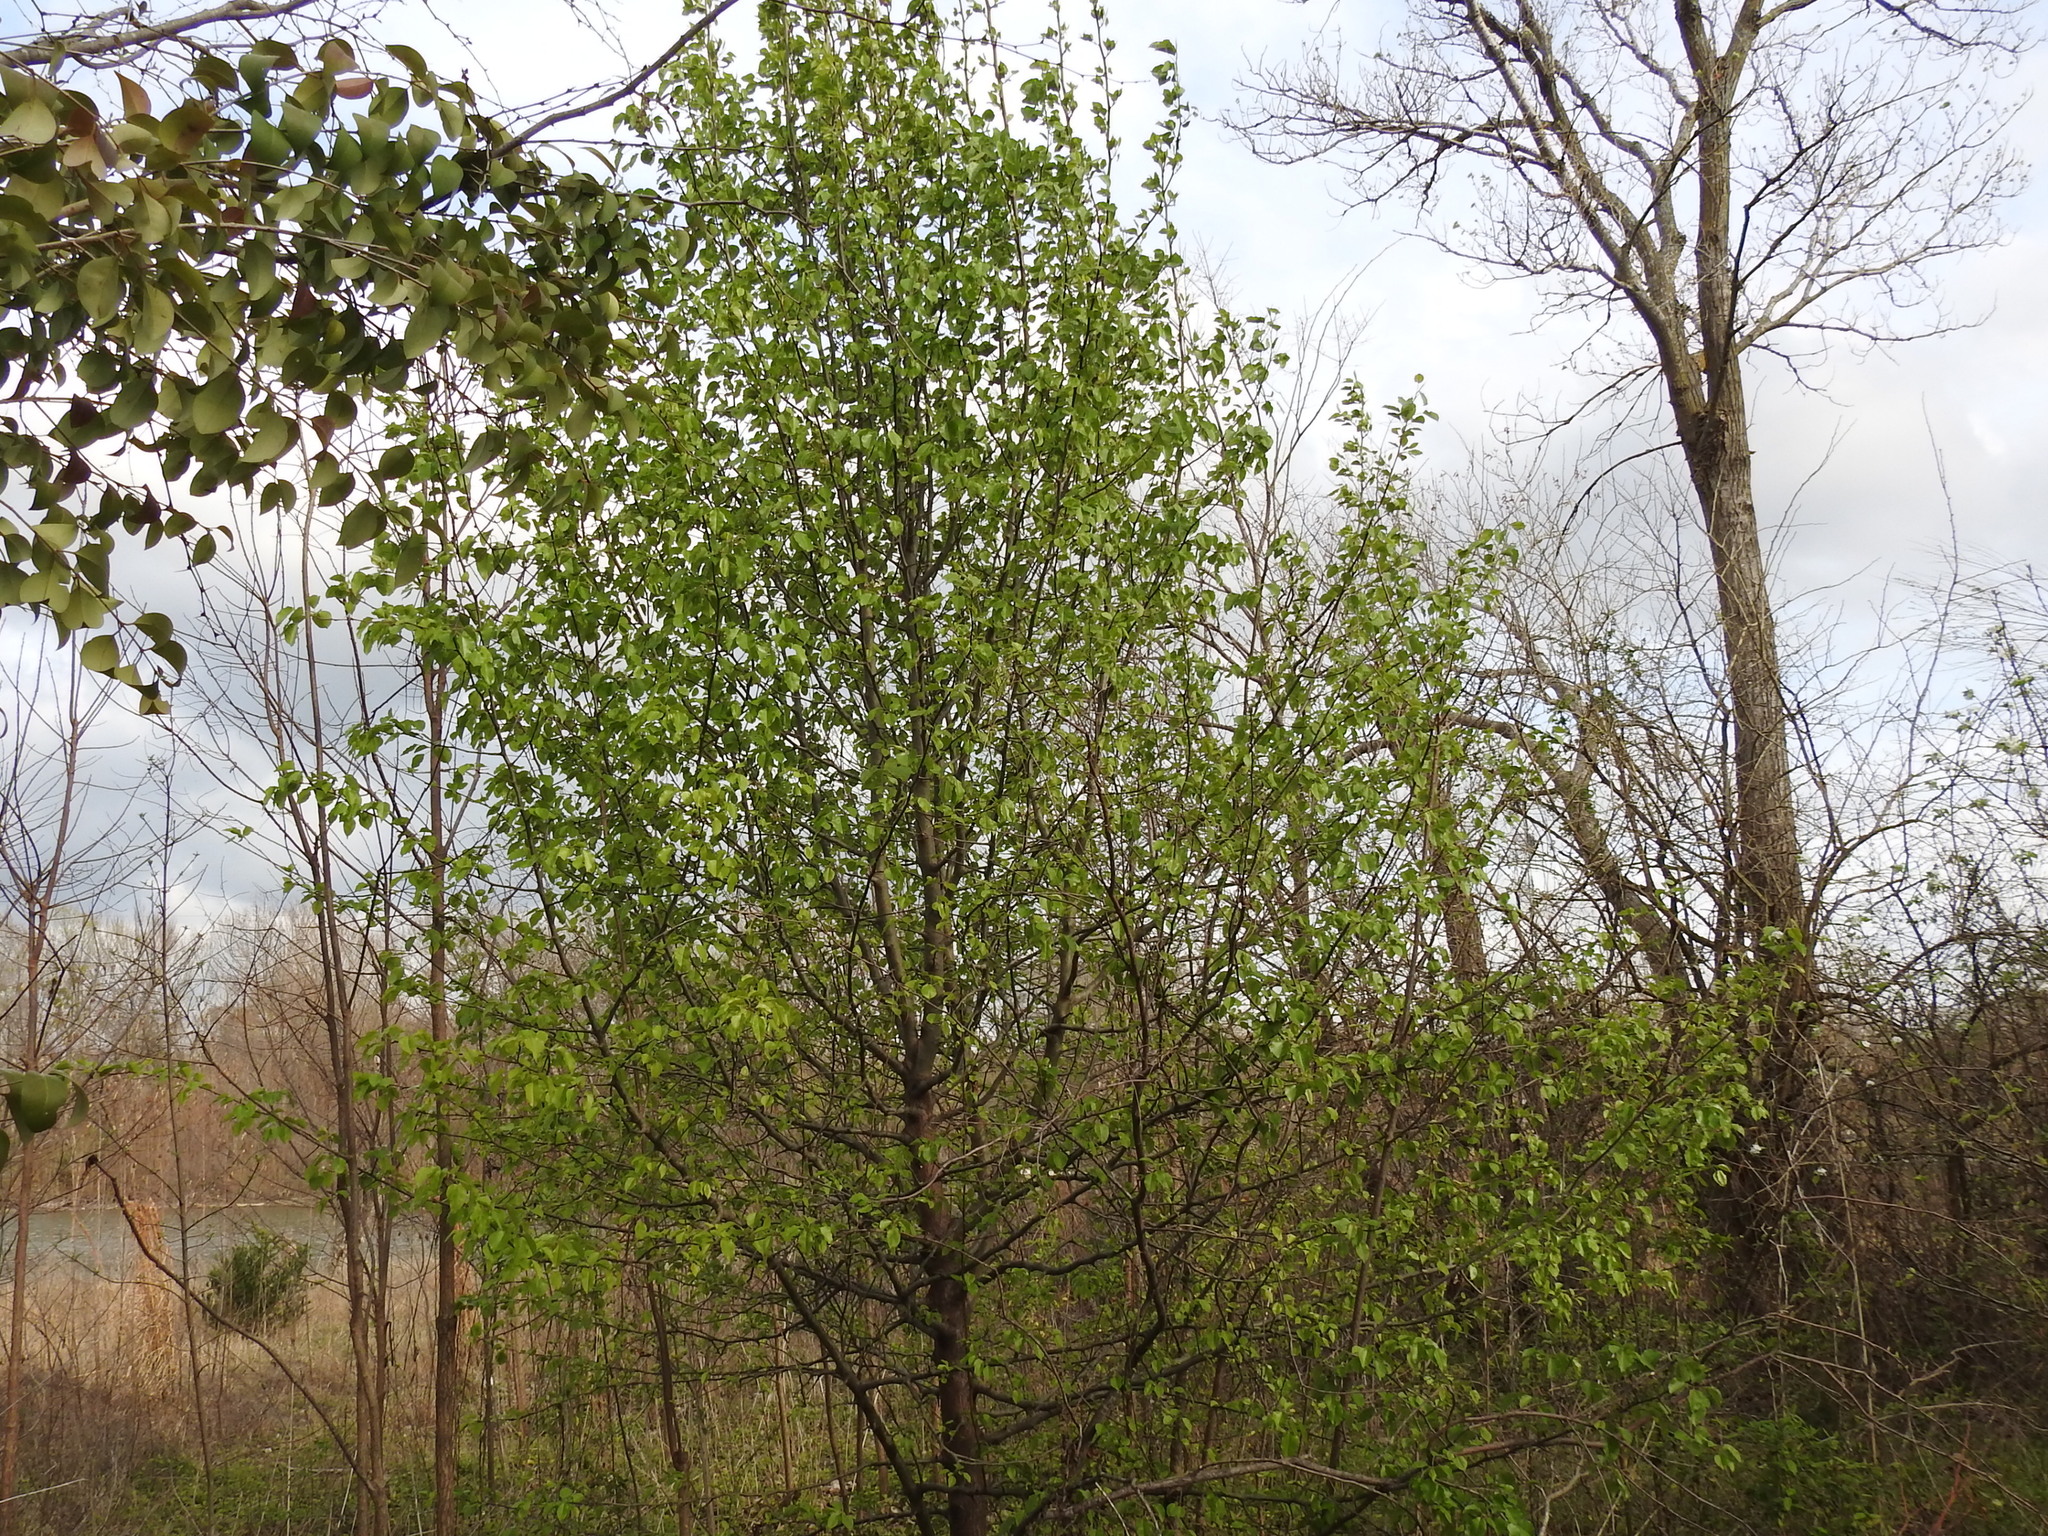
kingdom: Plantae
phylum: Tracheophyta
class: Magnoliopsida
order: Rosales
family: Rosaceae
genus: Pyrus
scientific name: Pyrus calleryana
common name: Callery pear
